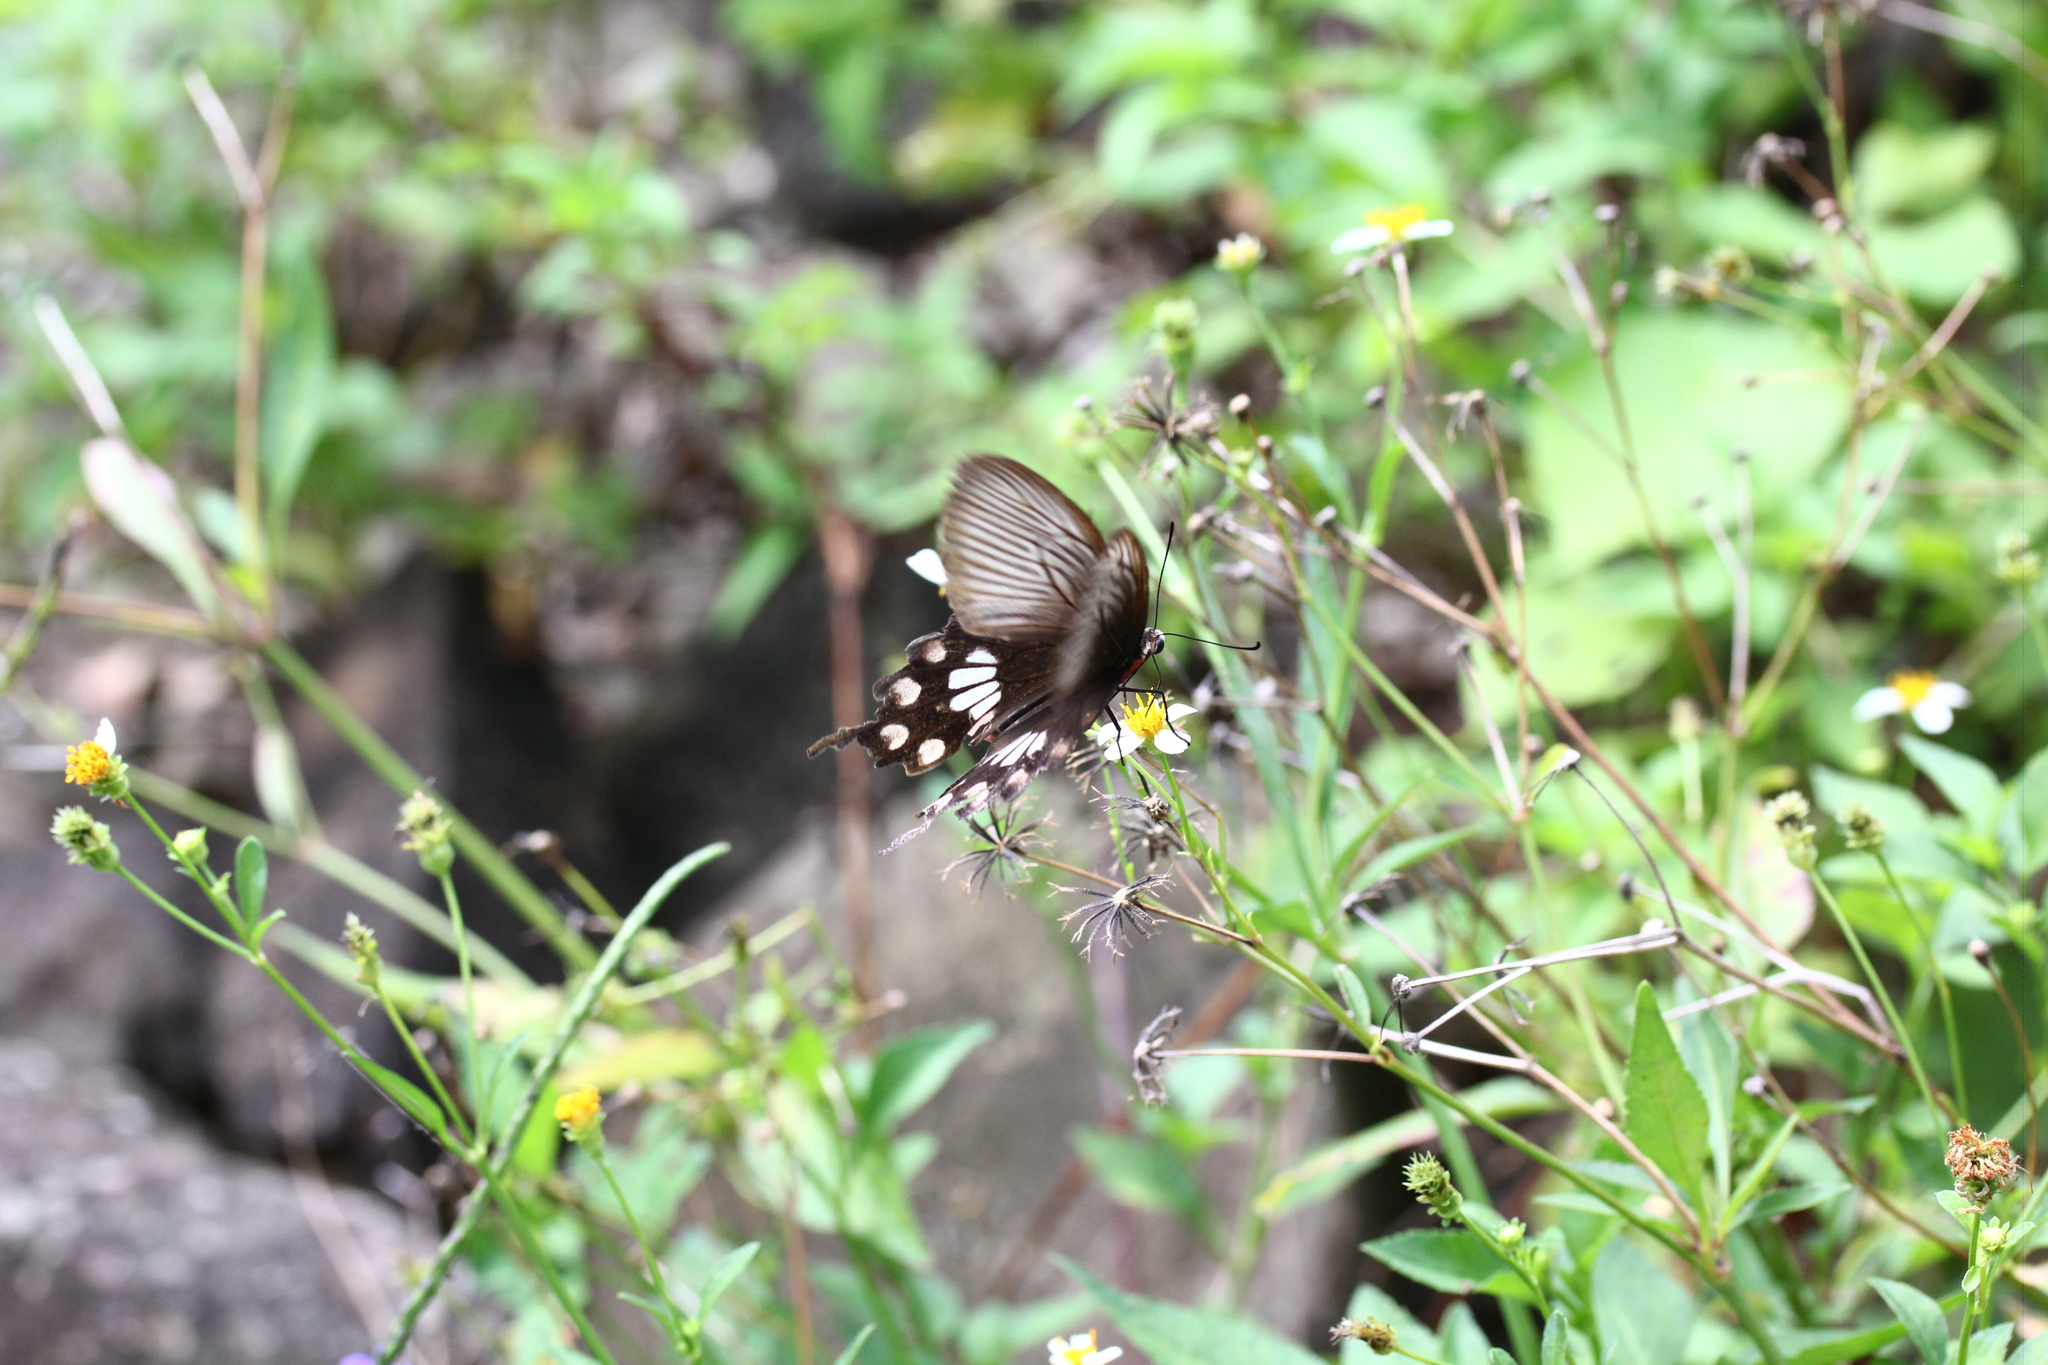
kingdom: Animalia
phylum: Arthropoda
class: Insecta
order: Lepidoptera
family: Papilionidae
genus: Pachliopta
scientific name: Pachliopta aristolochiae
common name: Common rose
